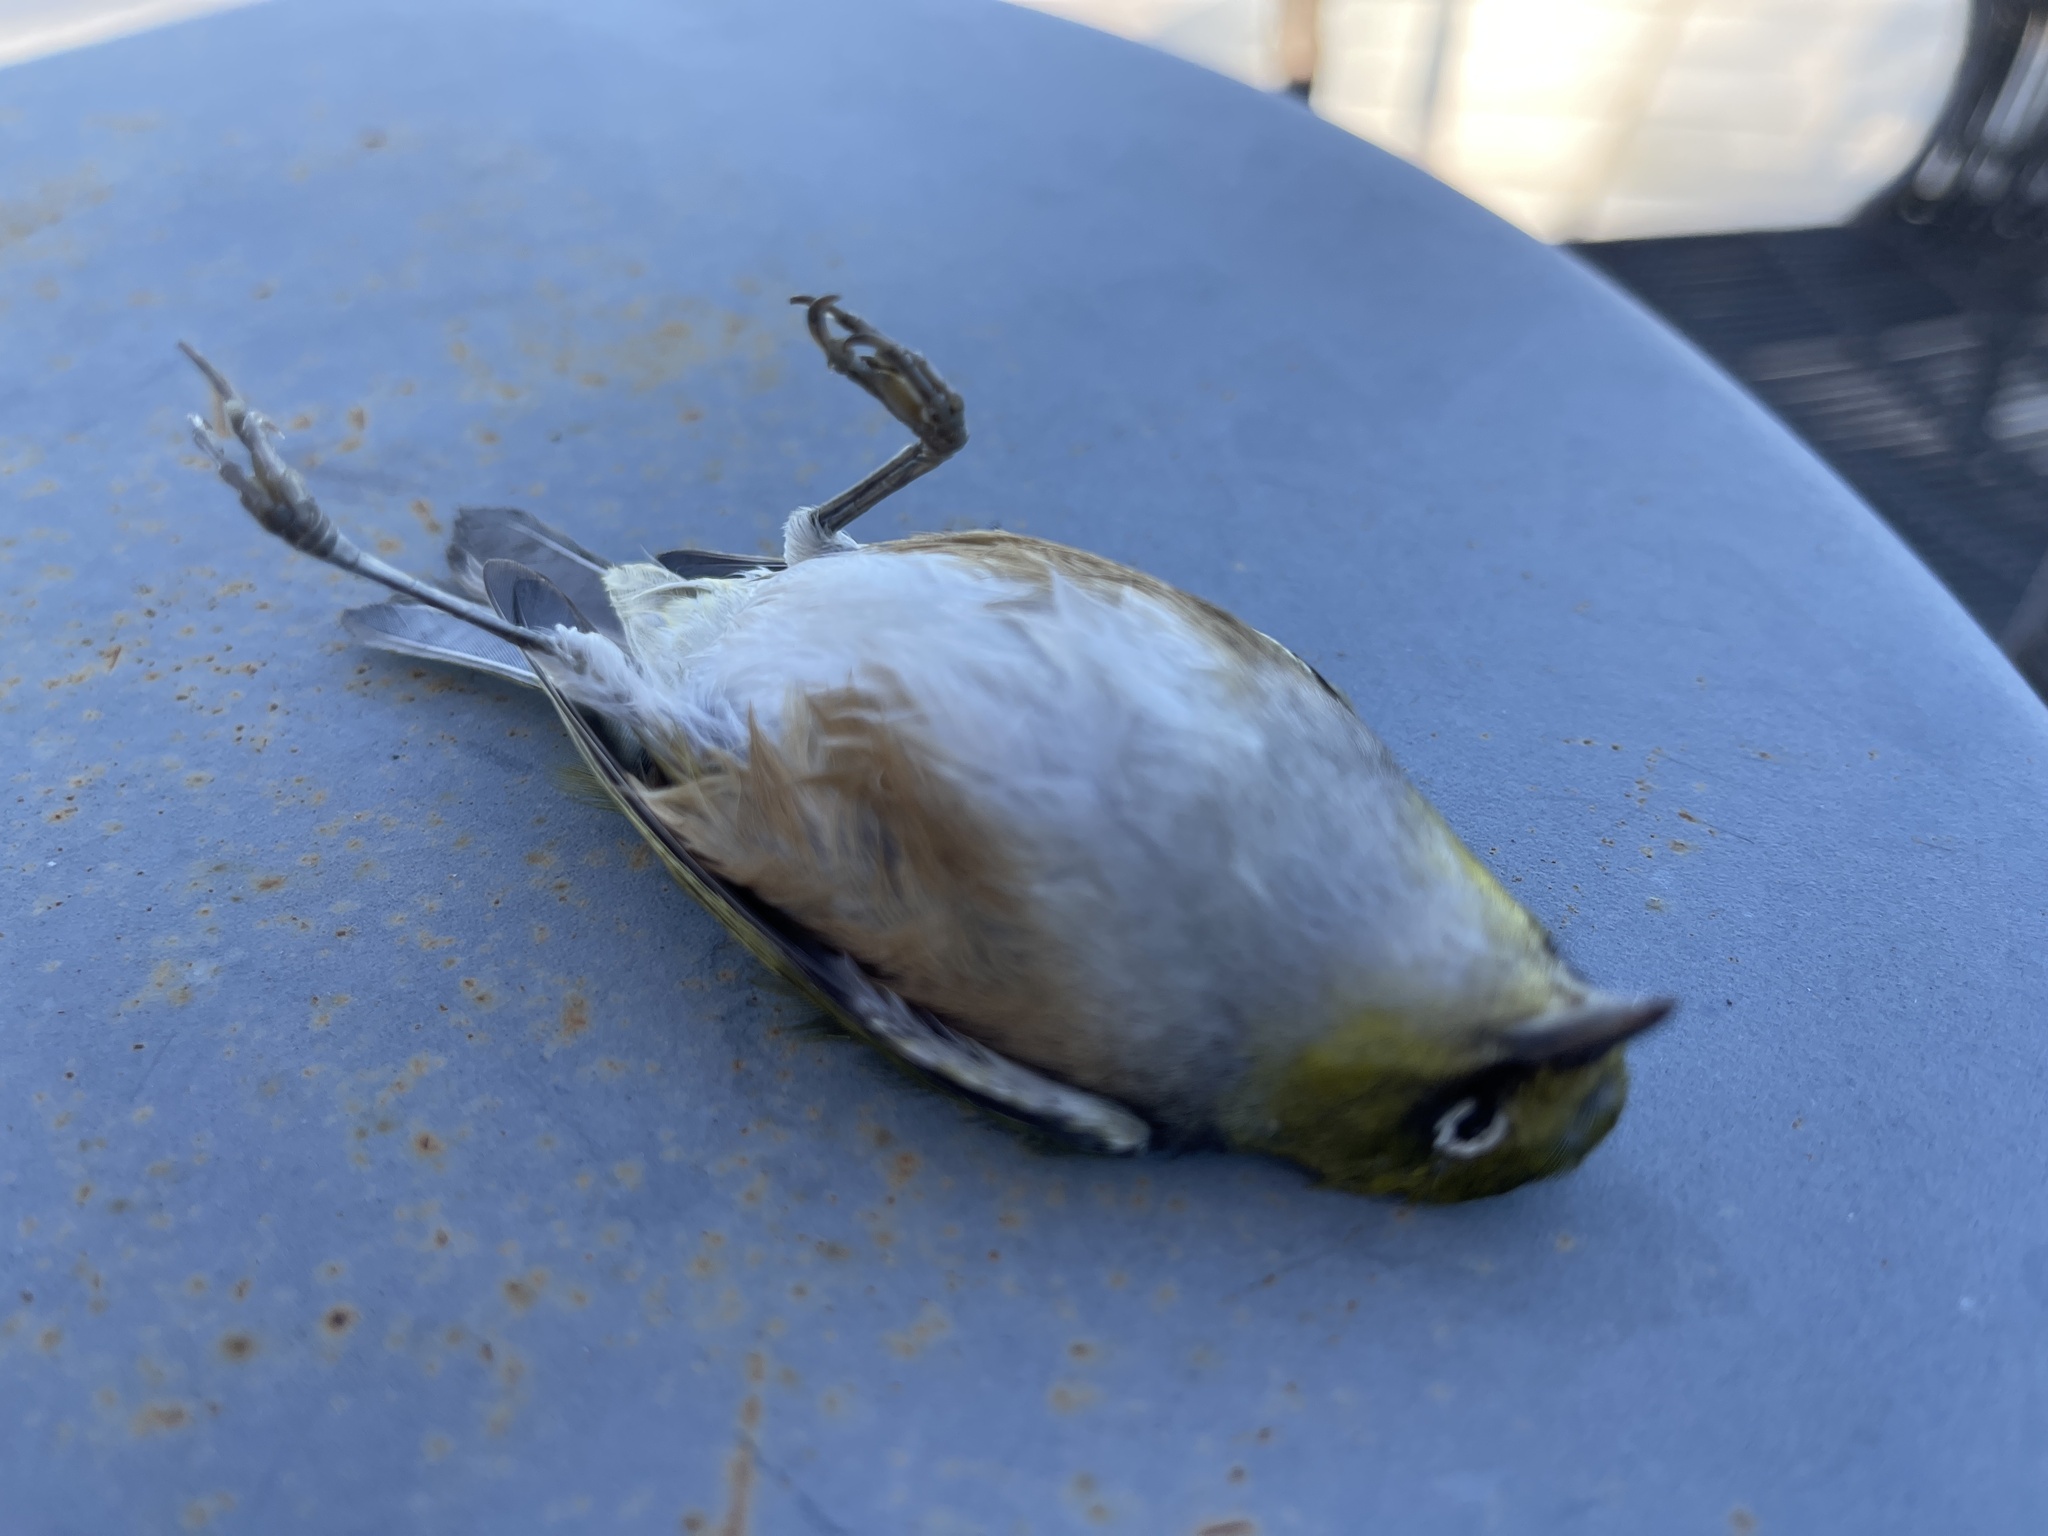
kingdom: Animalia
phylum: Chordata
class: Aves
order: Passeriformes
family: Zosteropidae
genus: Zosterops
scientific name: Zosterops lateralis
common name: Silvereye
